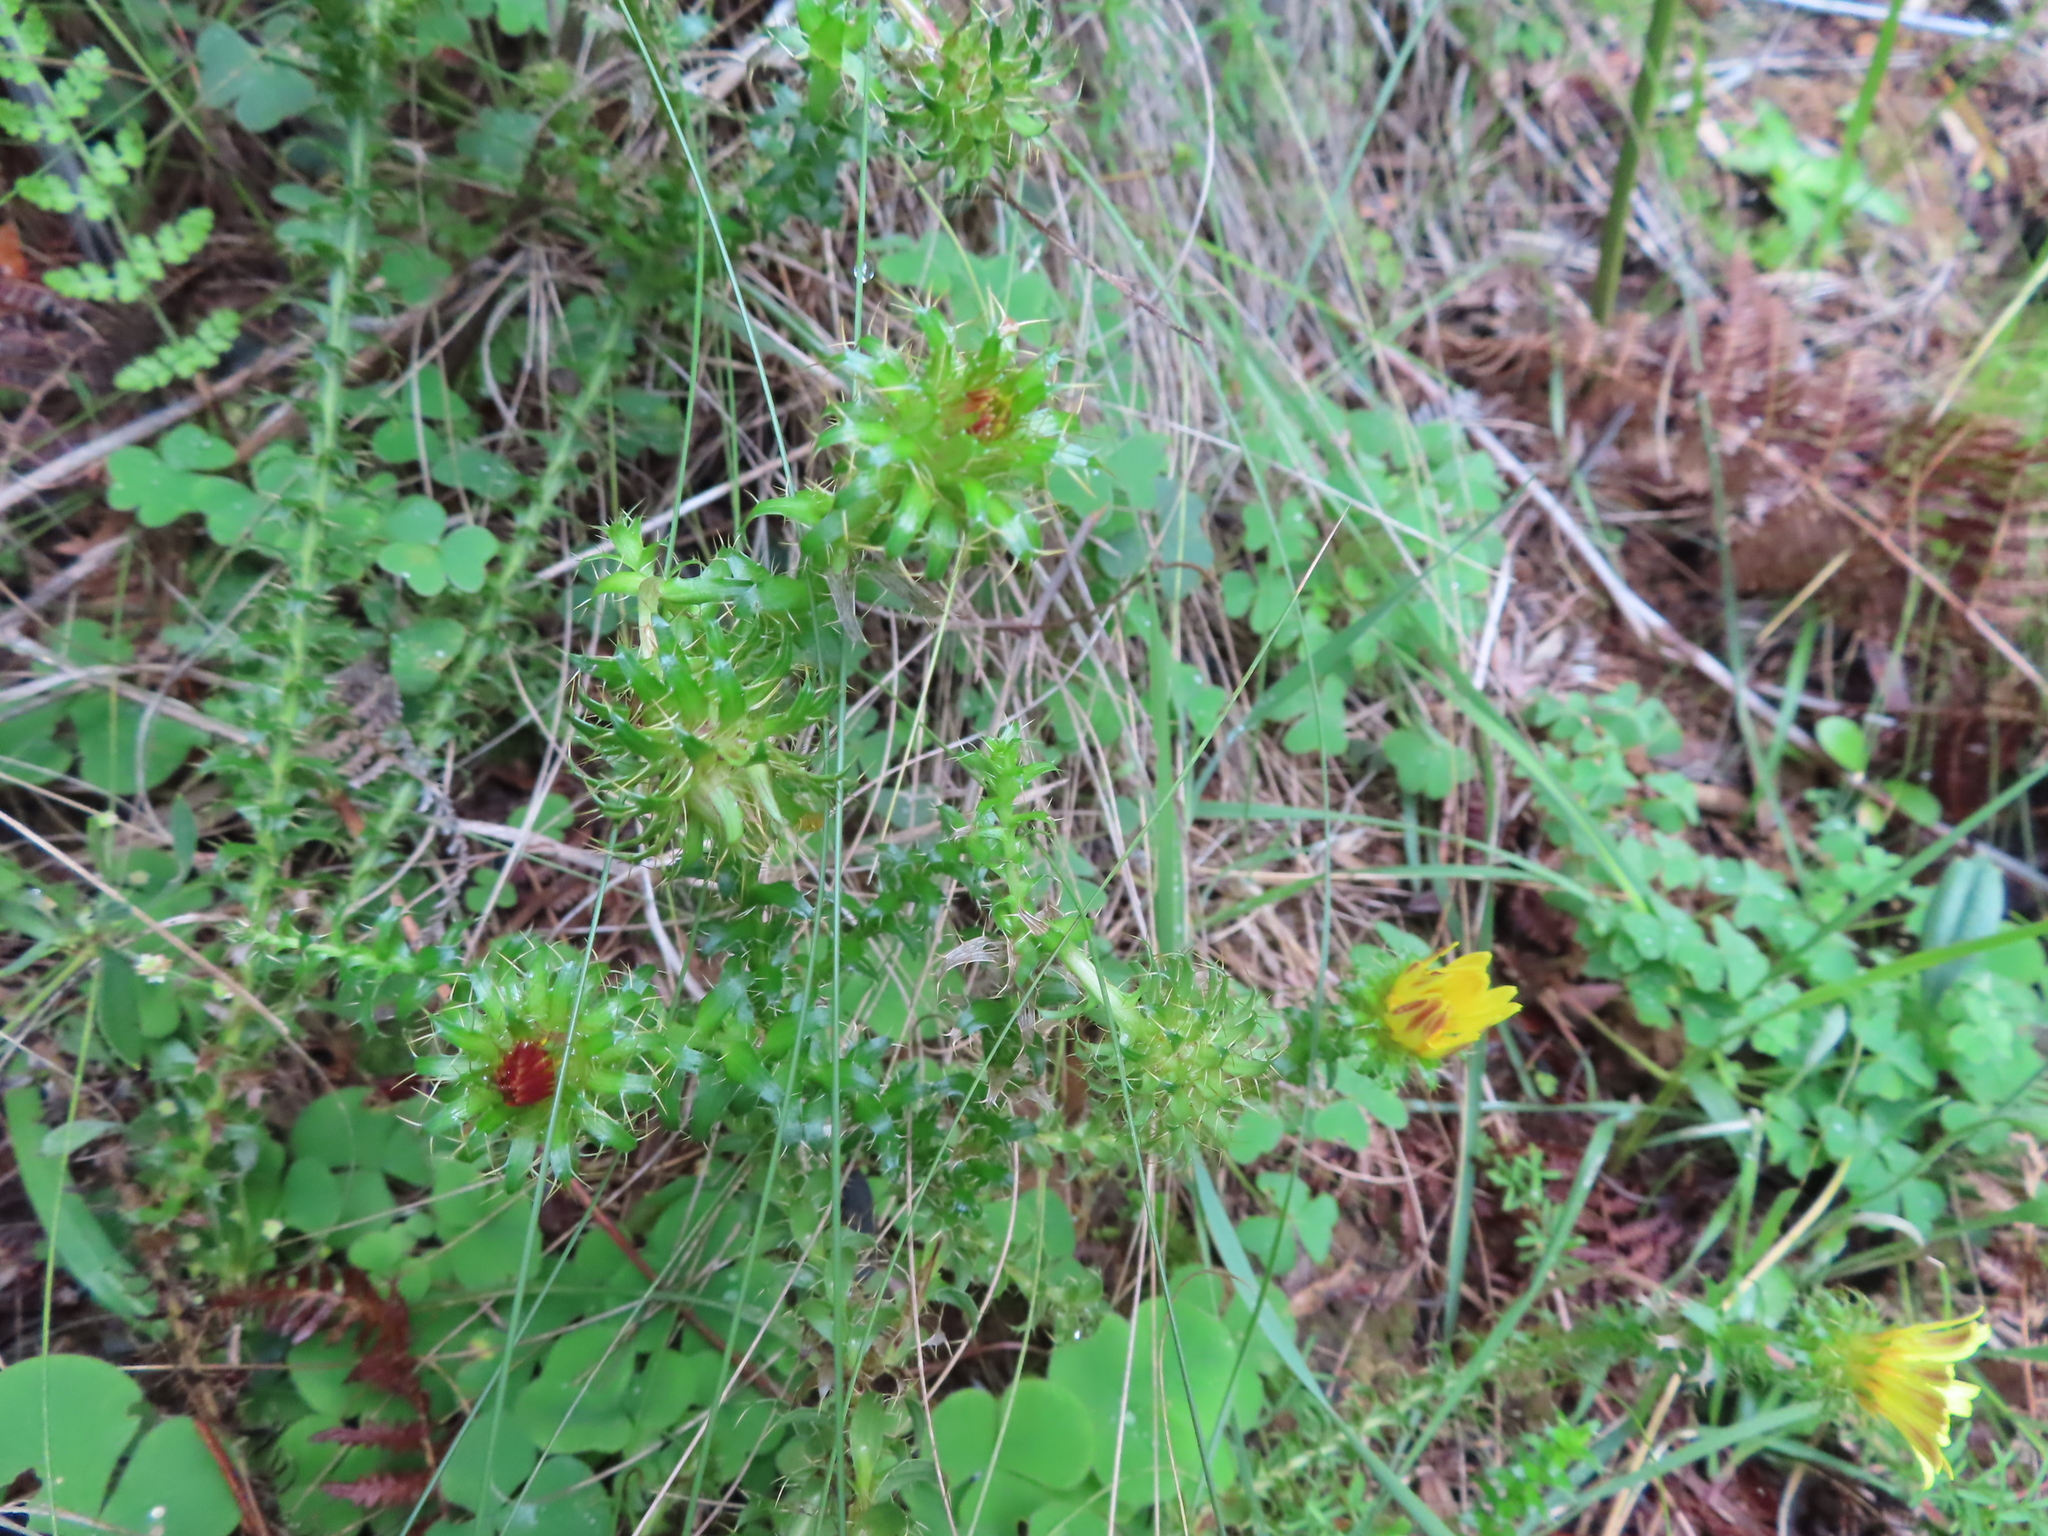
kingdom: Plantae
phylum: Tracheophyta
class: Magnoliopsida
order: Asterales
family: Asteraceae
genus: Cullumia
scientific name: Cullumia setosa
